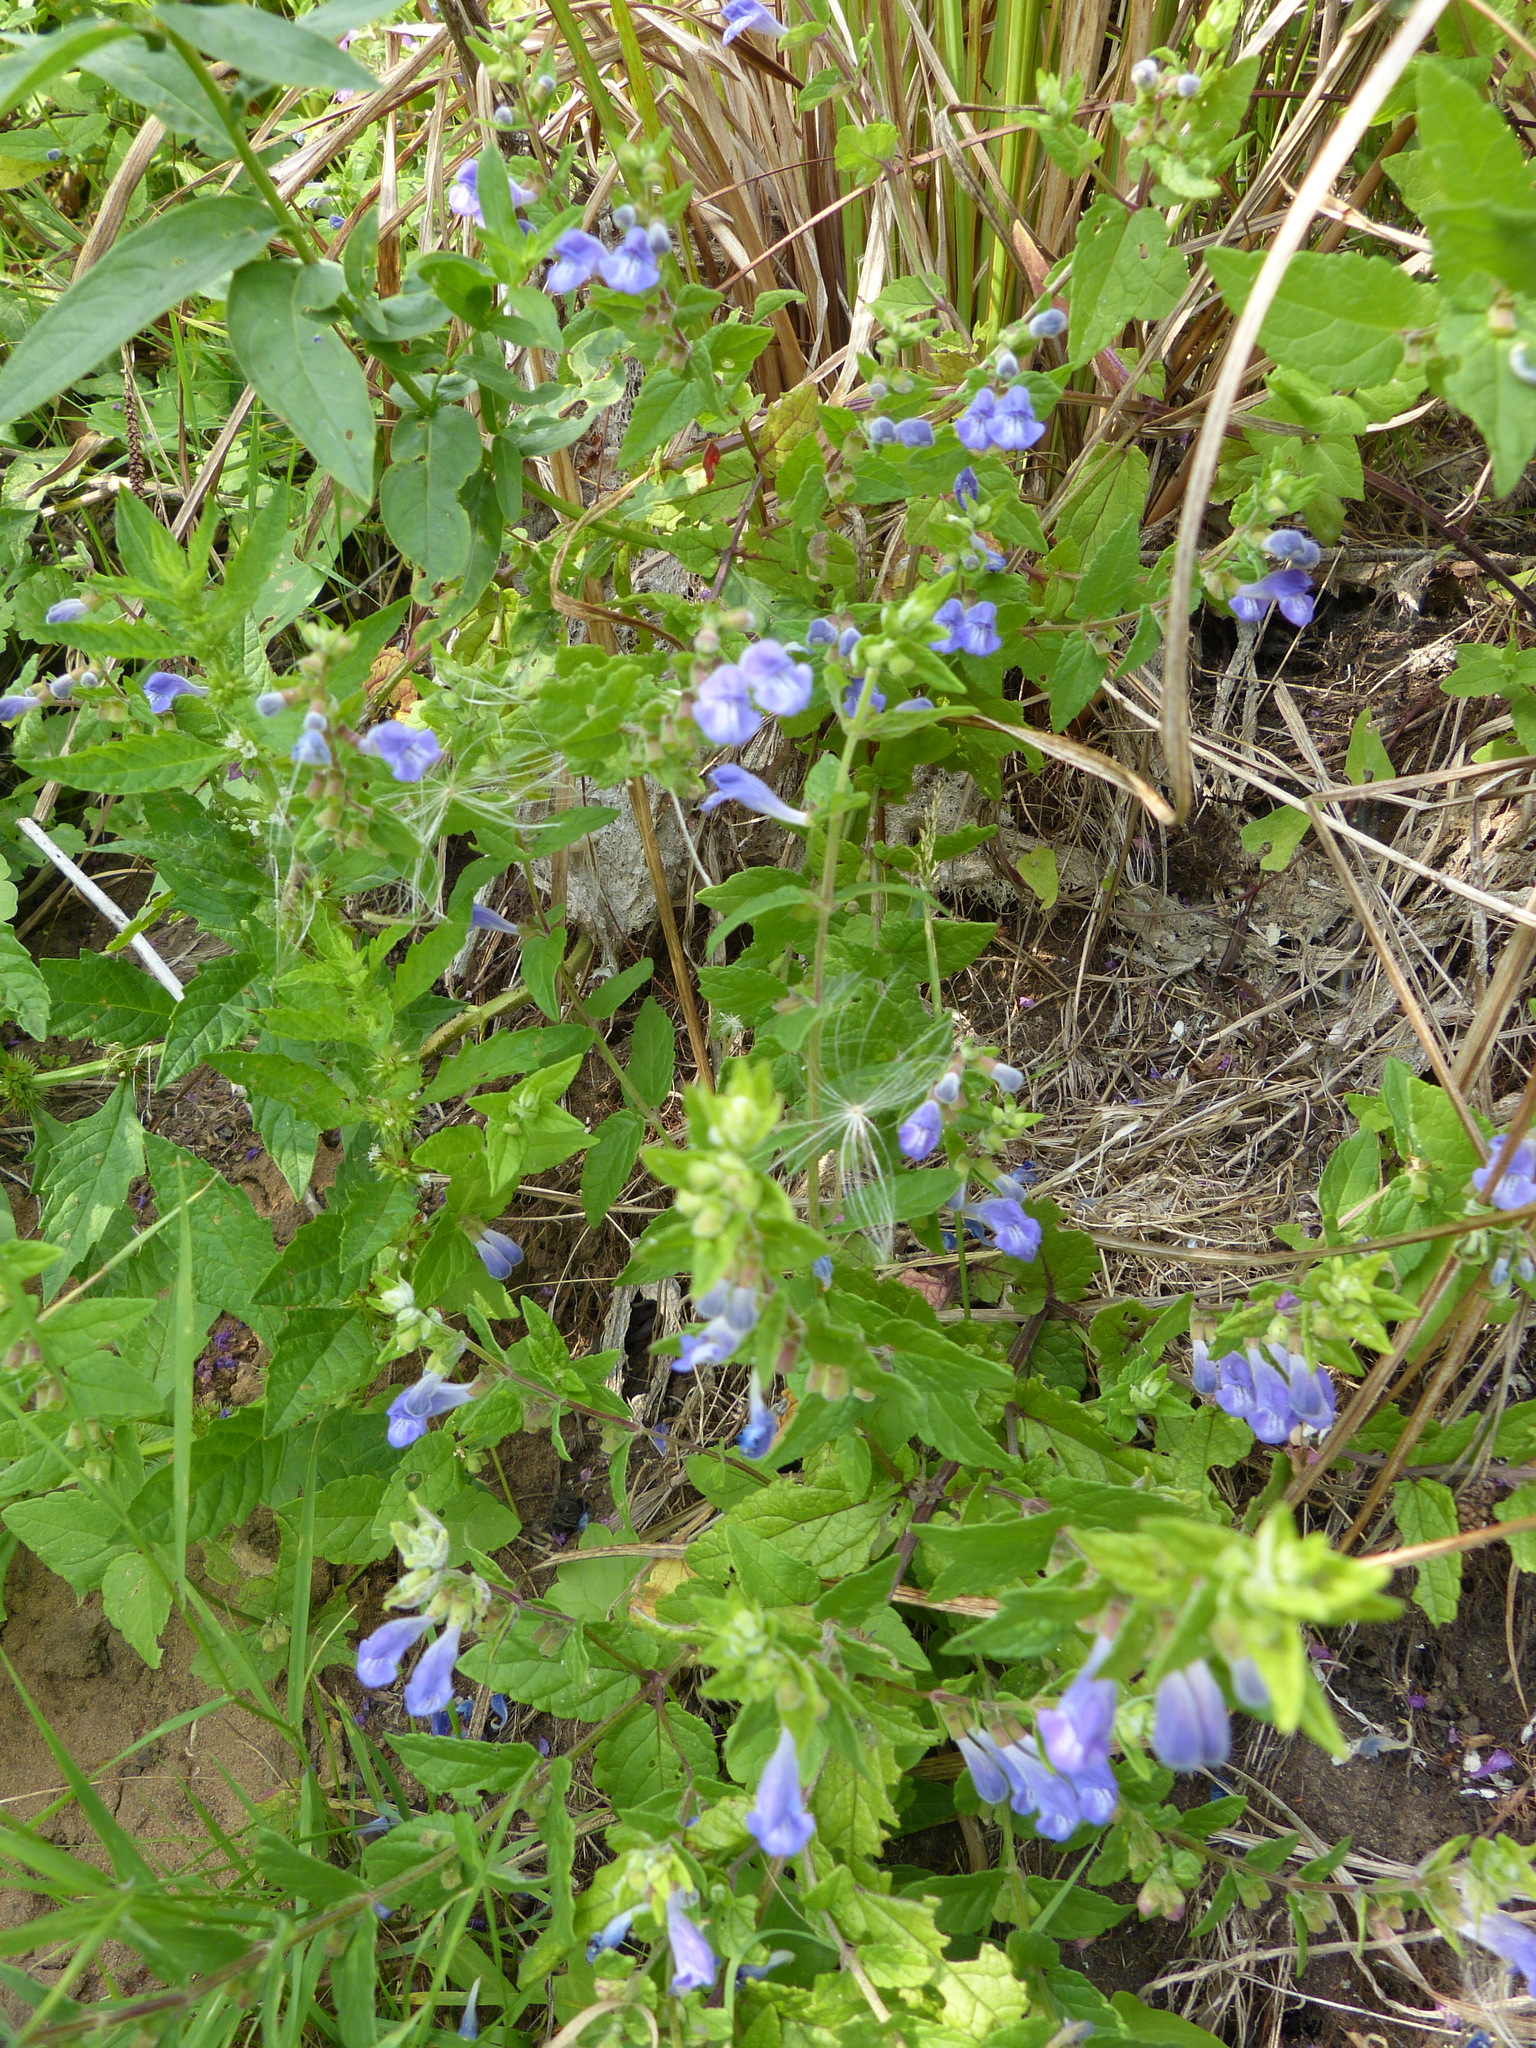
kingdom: Plantae
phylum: Tracheophyta
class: Magnoliopsida
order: Lamiales
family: Lamiaceae
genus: Scutellaria
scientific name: Scutellaria galericulata
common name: Skullcap
